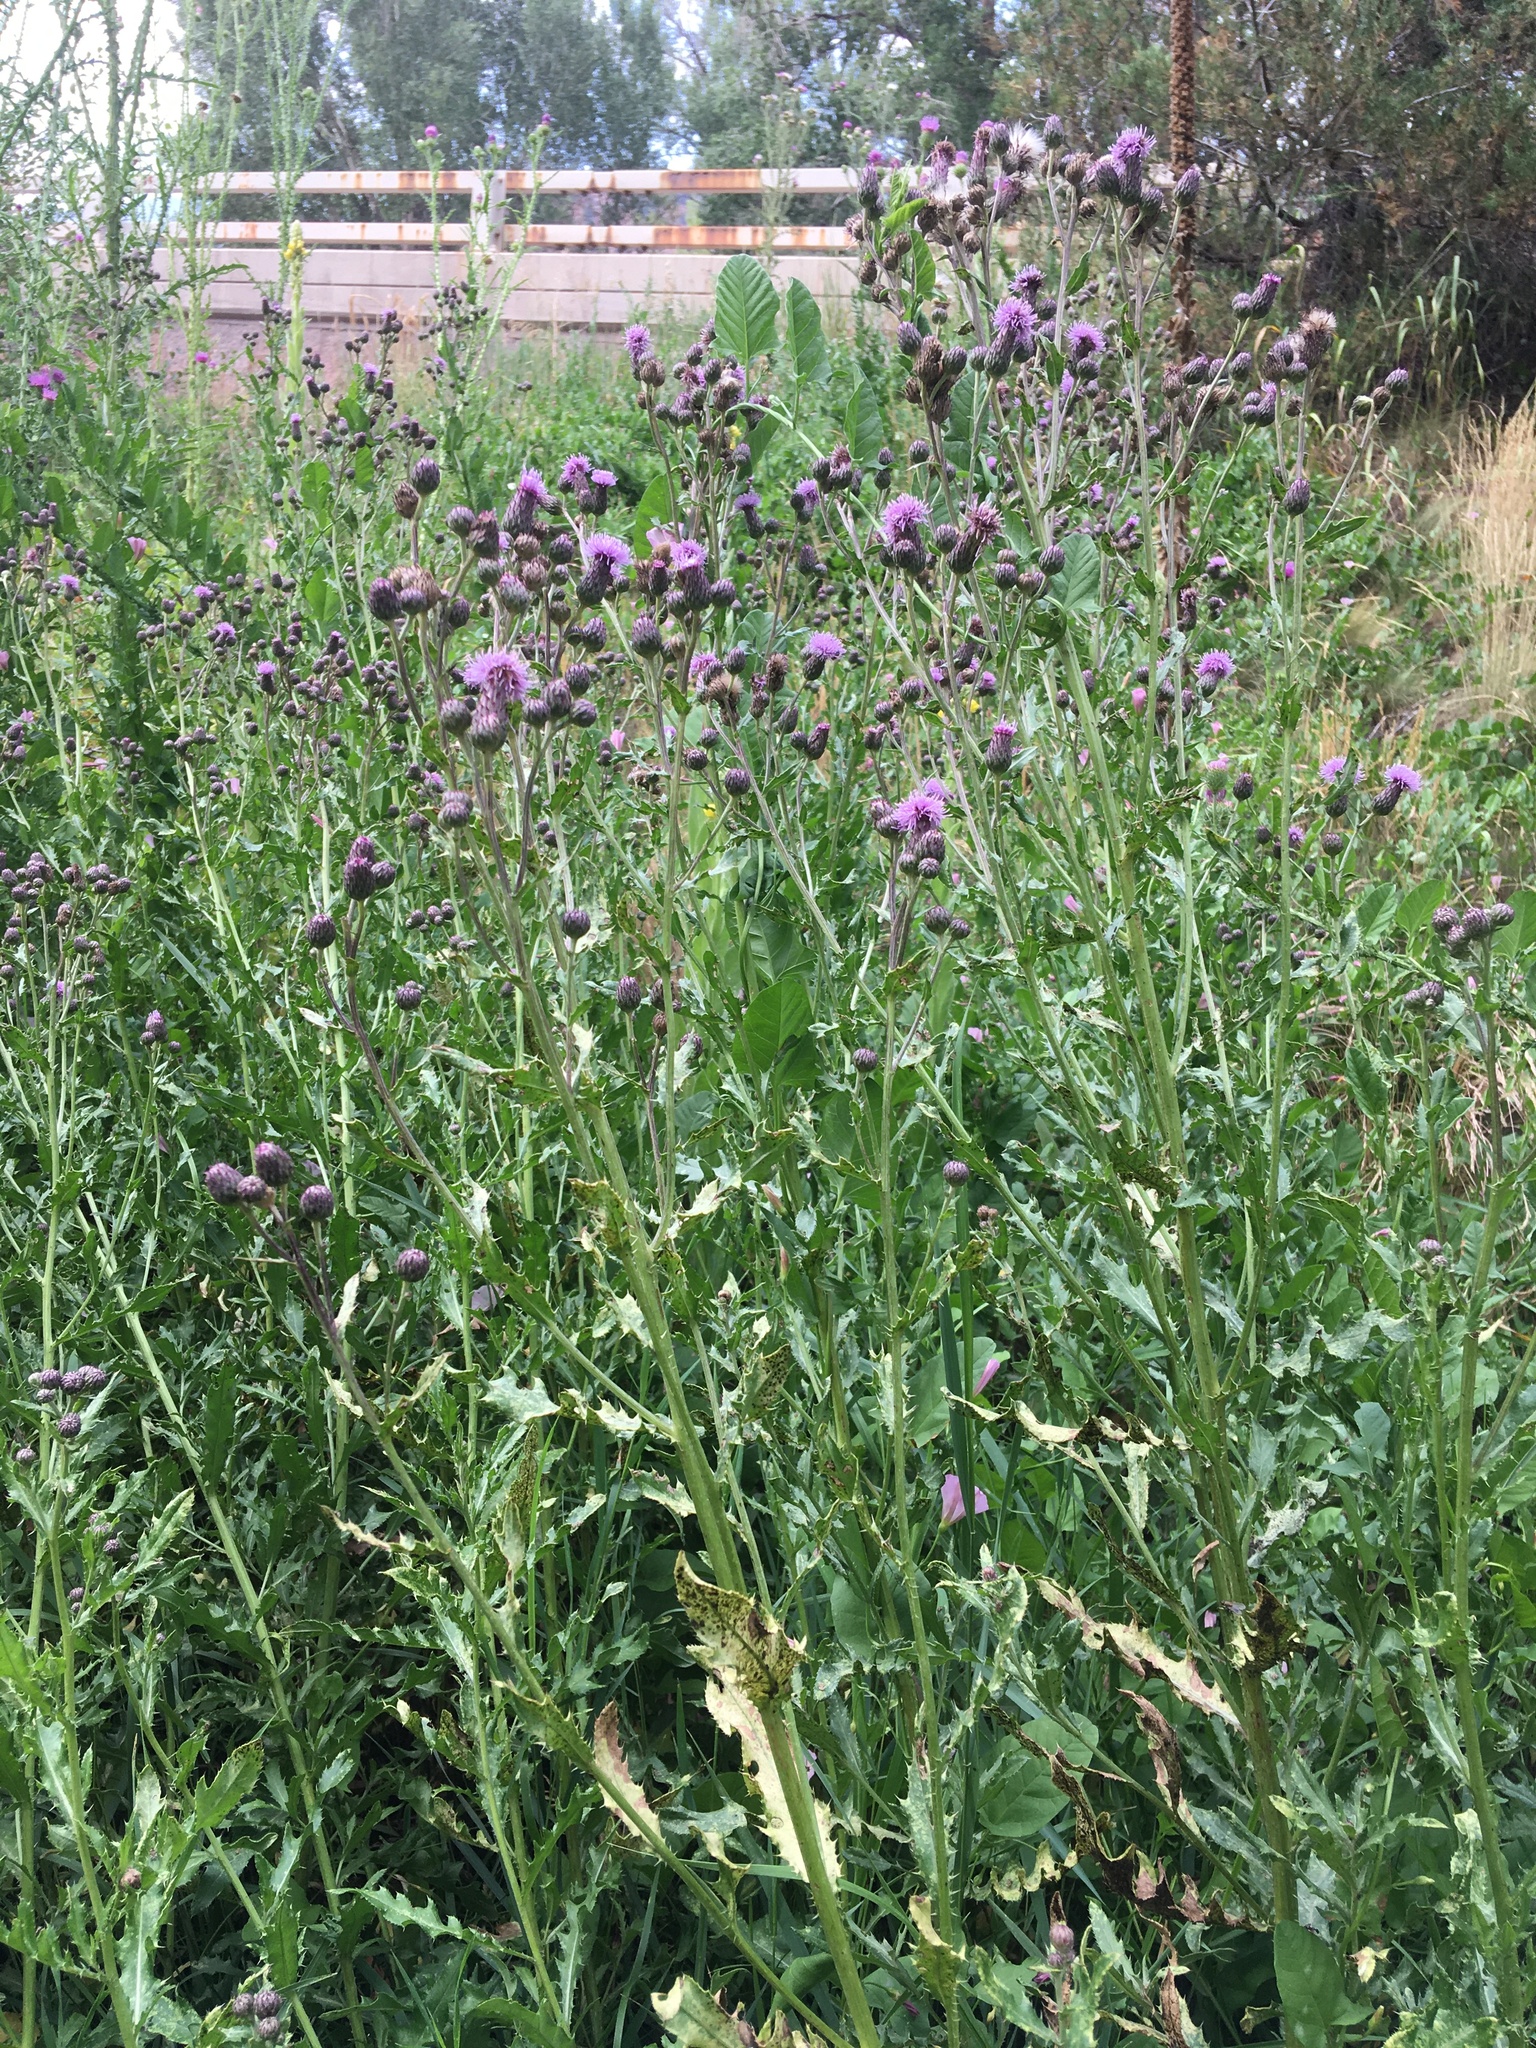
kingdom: Plantae
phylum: Tracheophyta
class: Magnoliopsida
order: Asterales
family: Asteraceae
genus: Cirsium
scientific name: Cirsium arvense
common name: Creeping thistle
